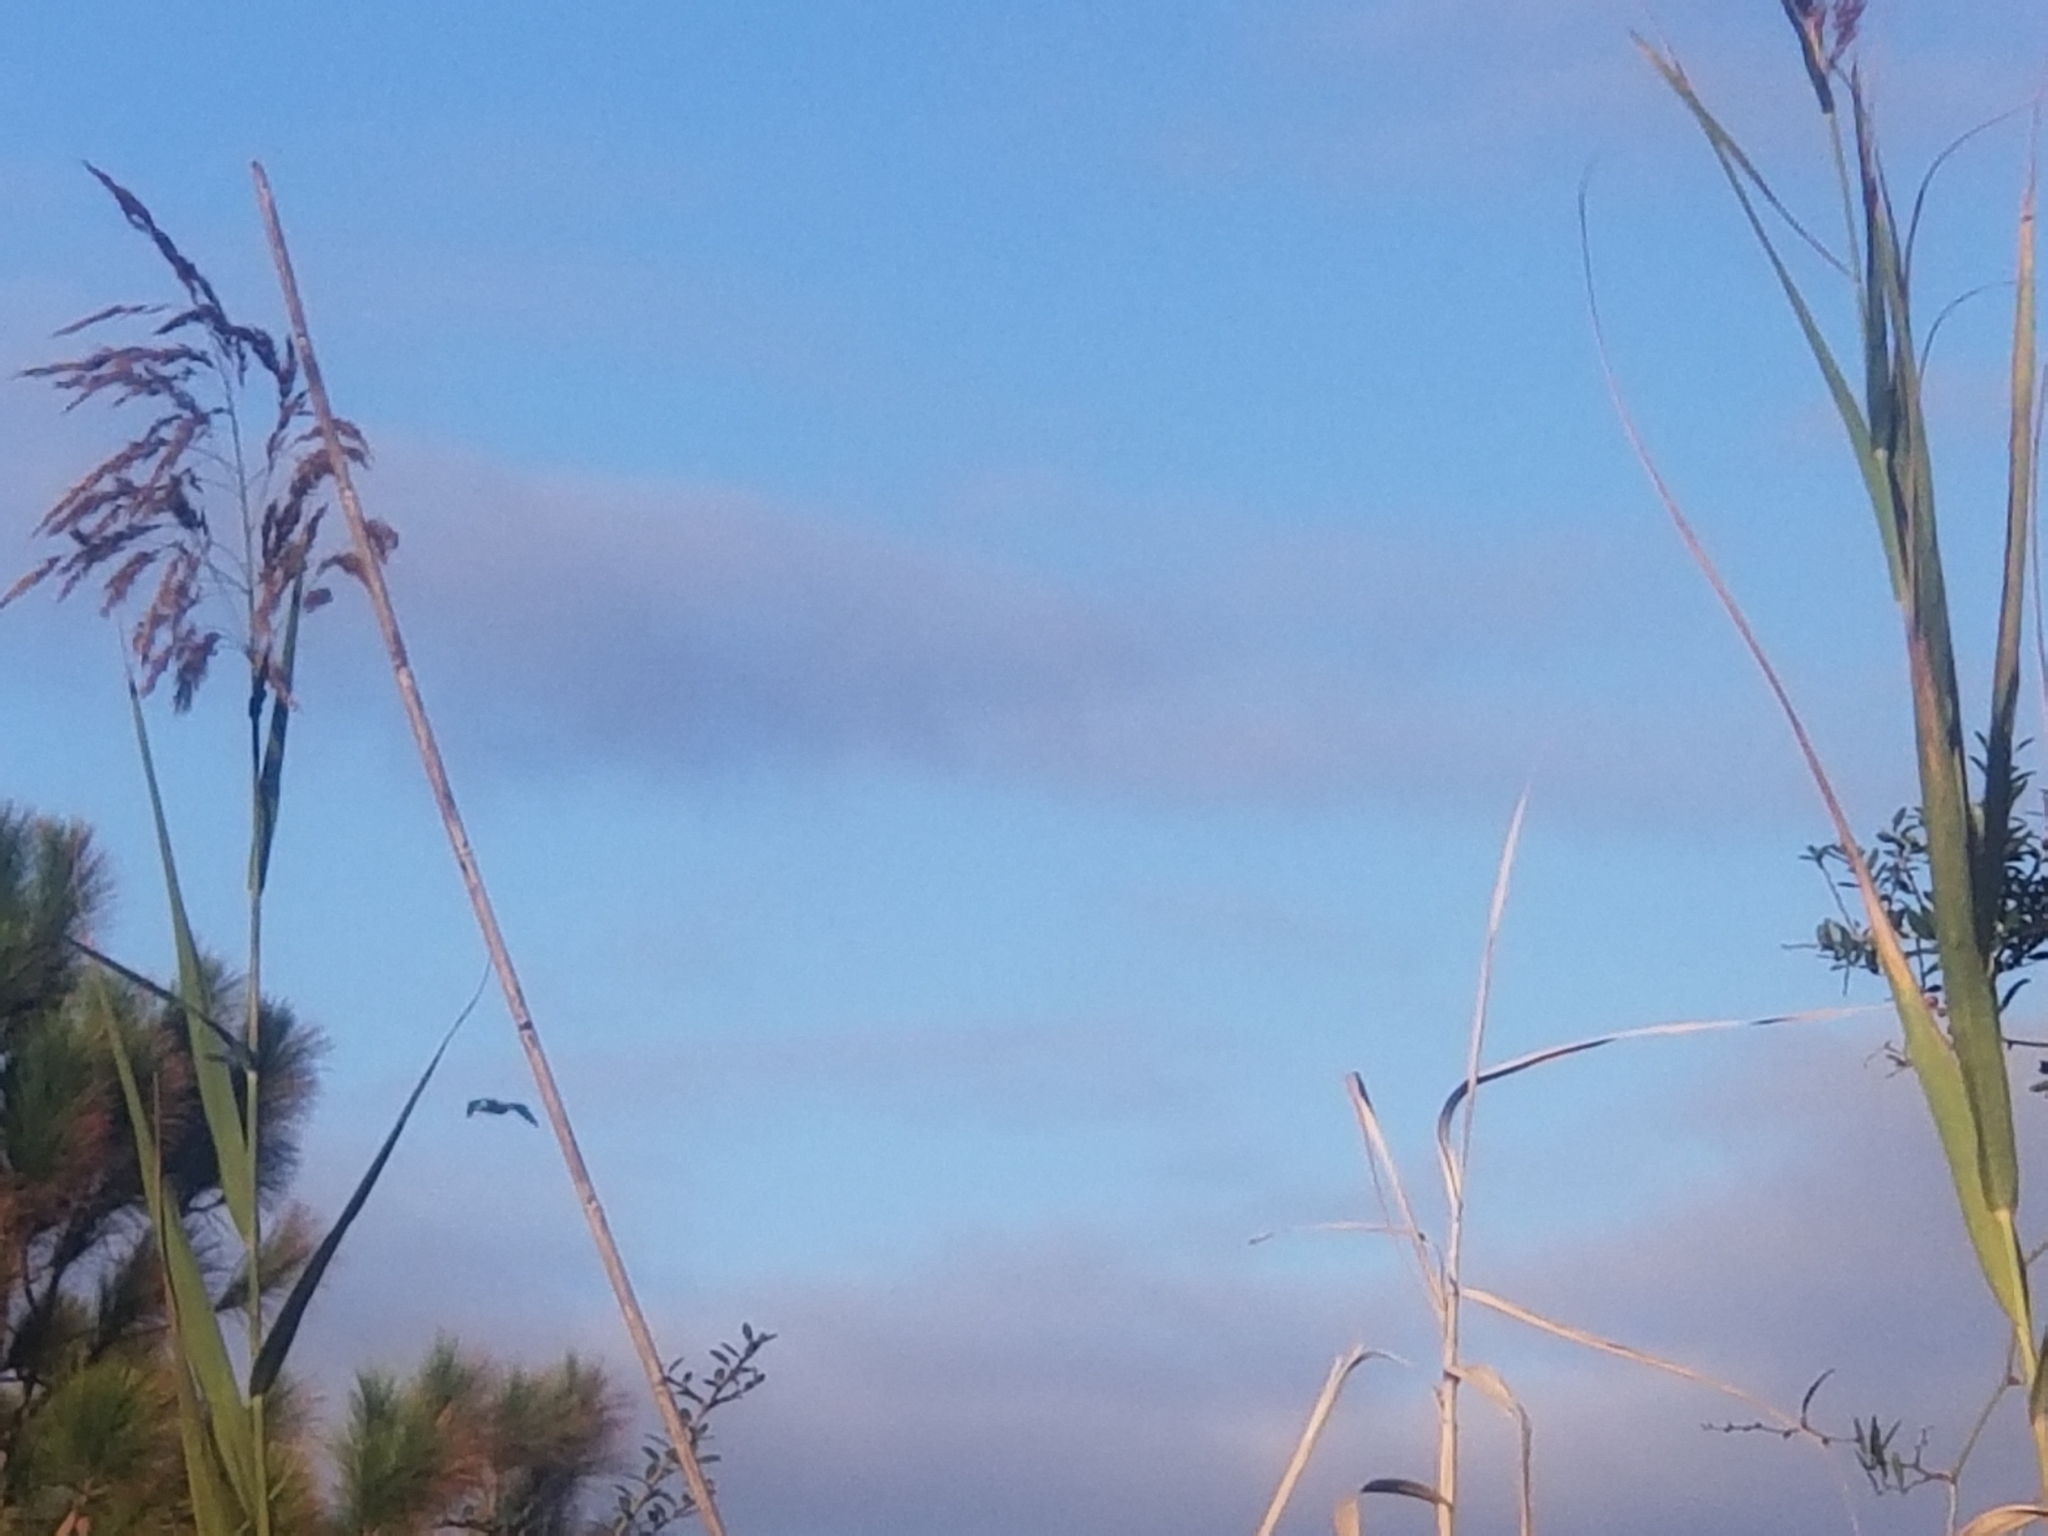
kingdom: Animalia
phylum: Chordata
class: Aves
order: Pelecaniformes
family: Ardeidae
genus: Ardea
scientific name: Ardea herodias
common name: Great blue heron
